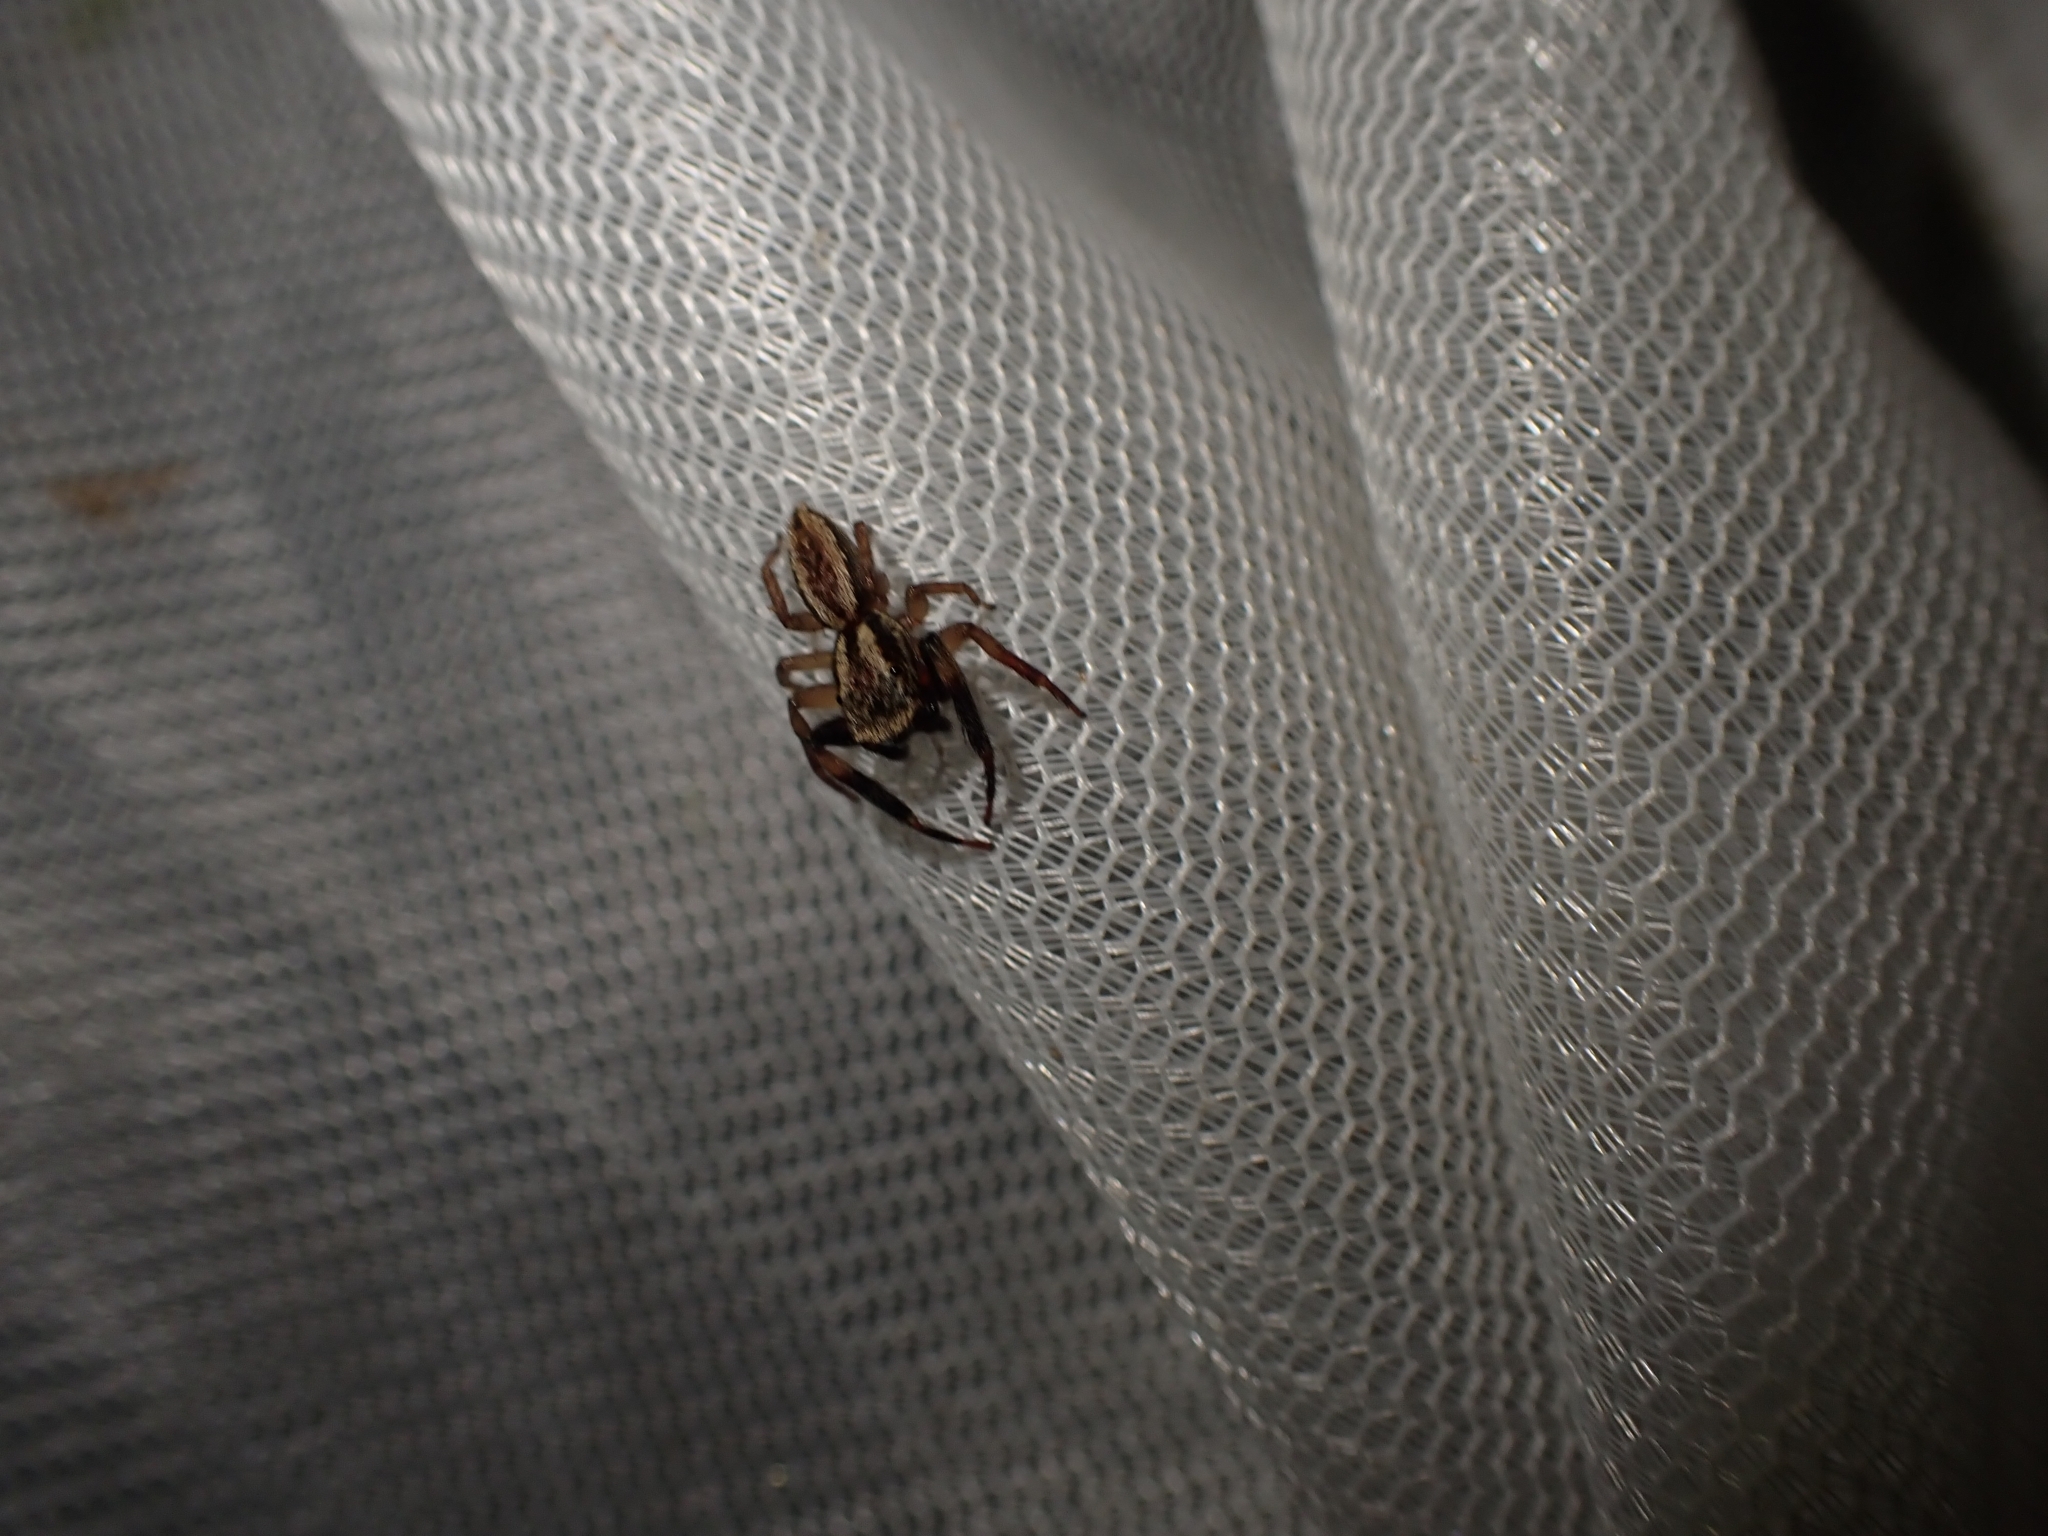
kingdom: Animalia
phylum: Arthropoda
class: Arachnida
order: Araneae
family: Salticidae
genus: Trite
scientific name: Trite auricoma
